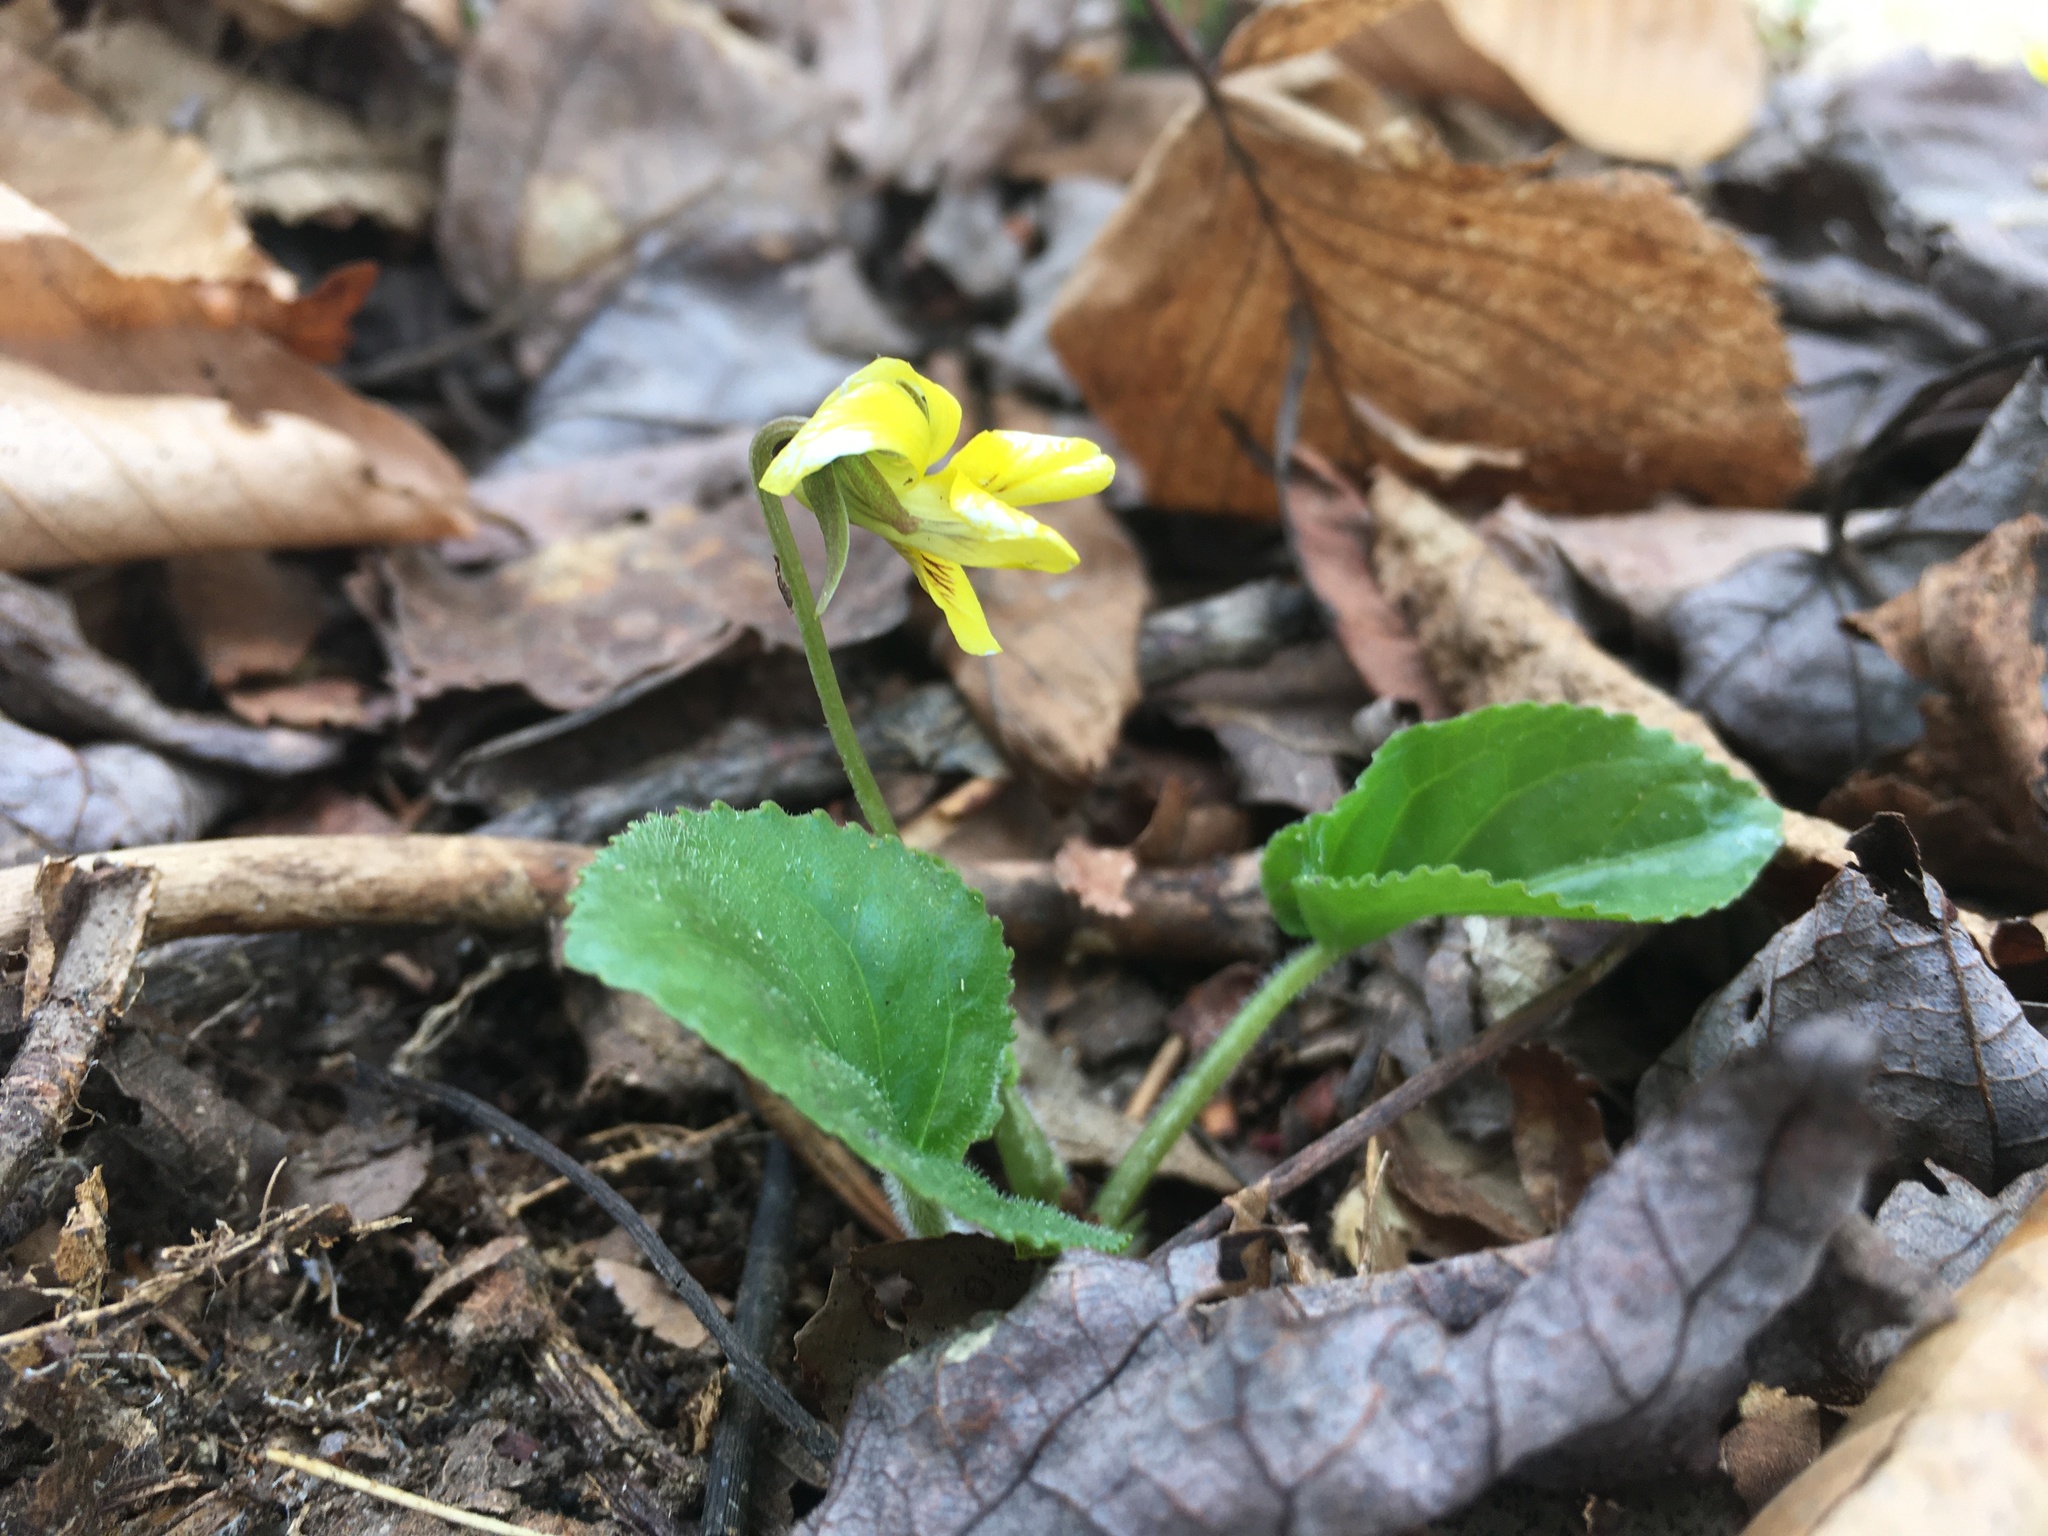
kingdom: Plantae
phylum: Tracheophyta
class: Magnoliopsida
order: Malpighiales
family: Violaceae
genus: Viola
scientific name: Viola rotundifolia
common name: Early yellow violet
